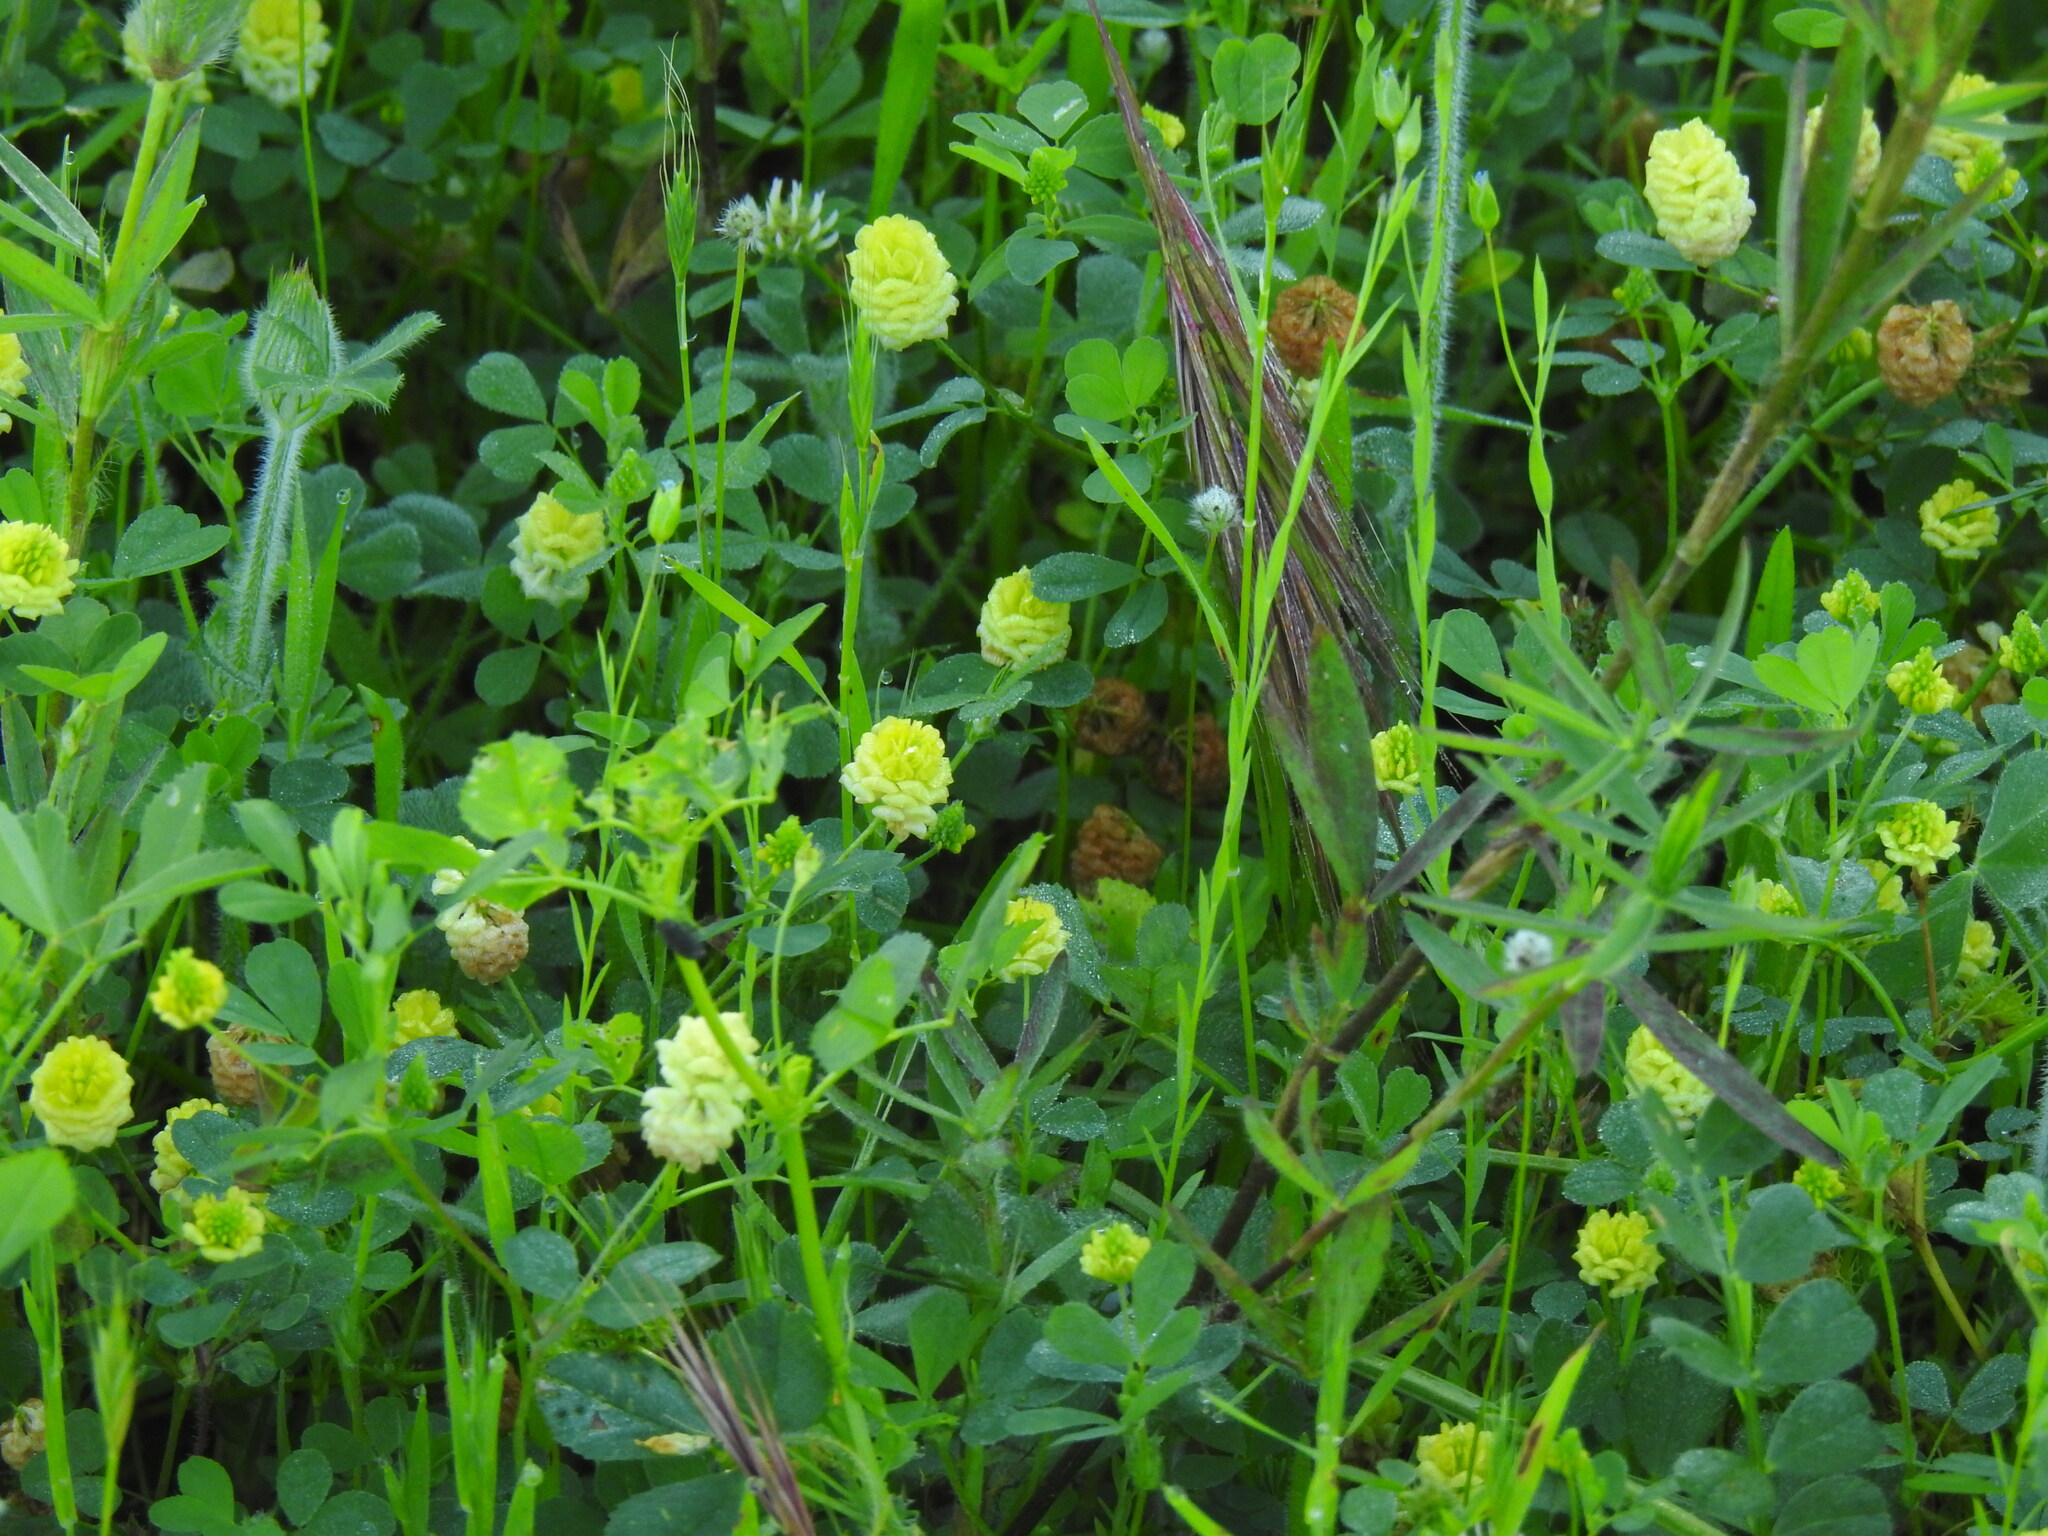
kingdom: Plantae
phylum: Tracheophyta
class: Magnoliopsida
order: Fabales
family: Fabaceae
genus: Trifolium
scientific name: Trifolium campestre
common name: Field clover
